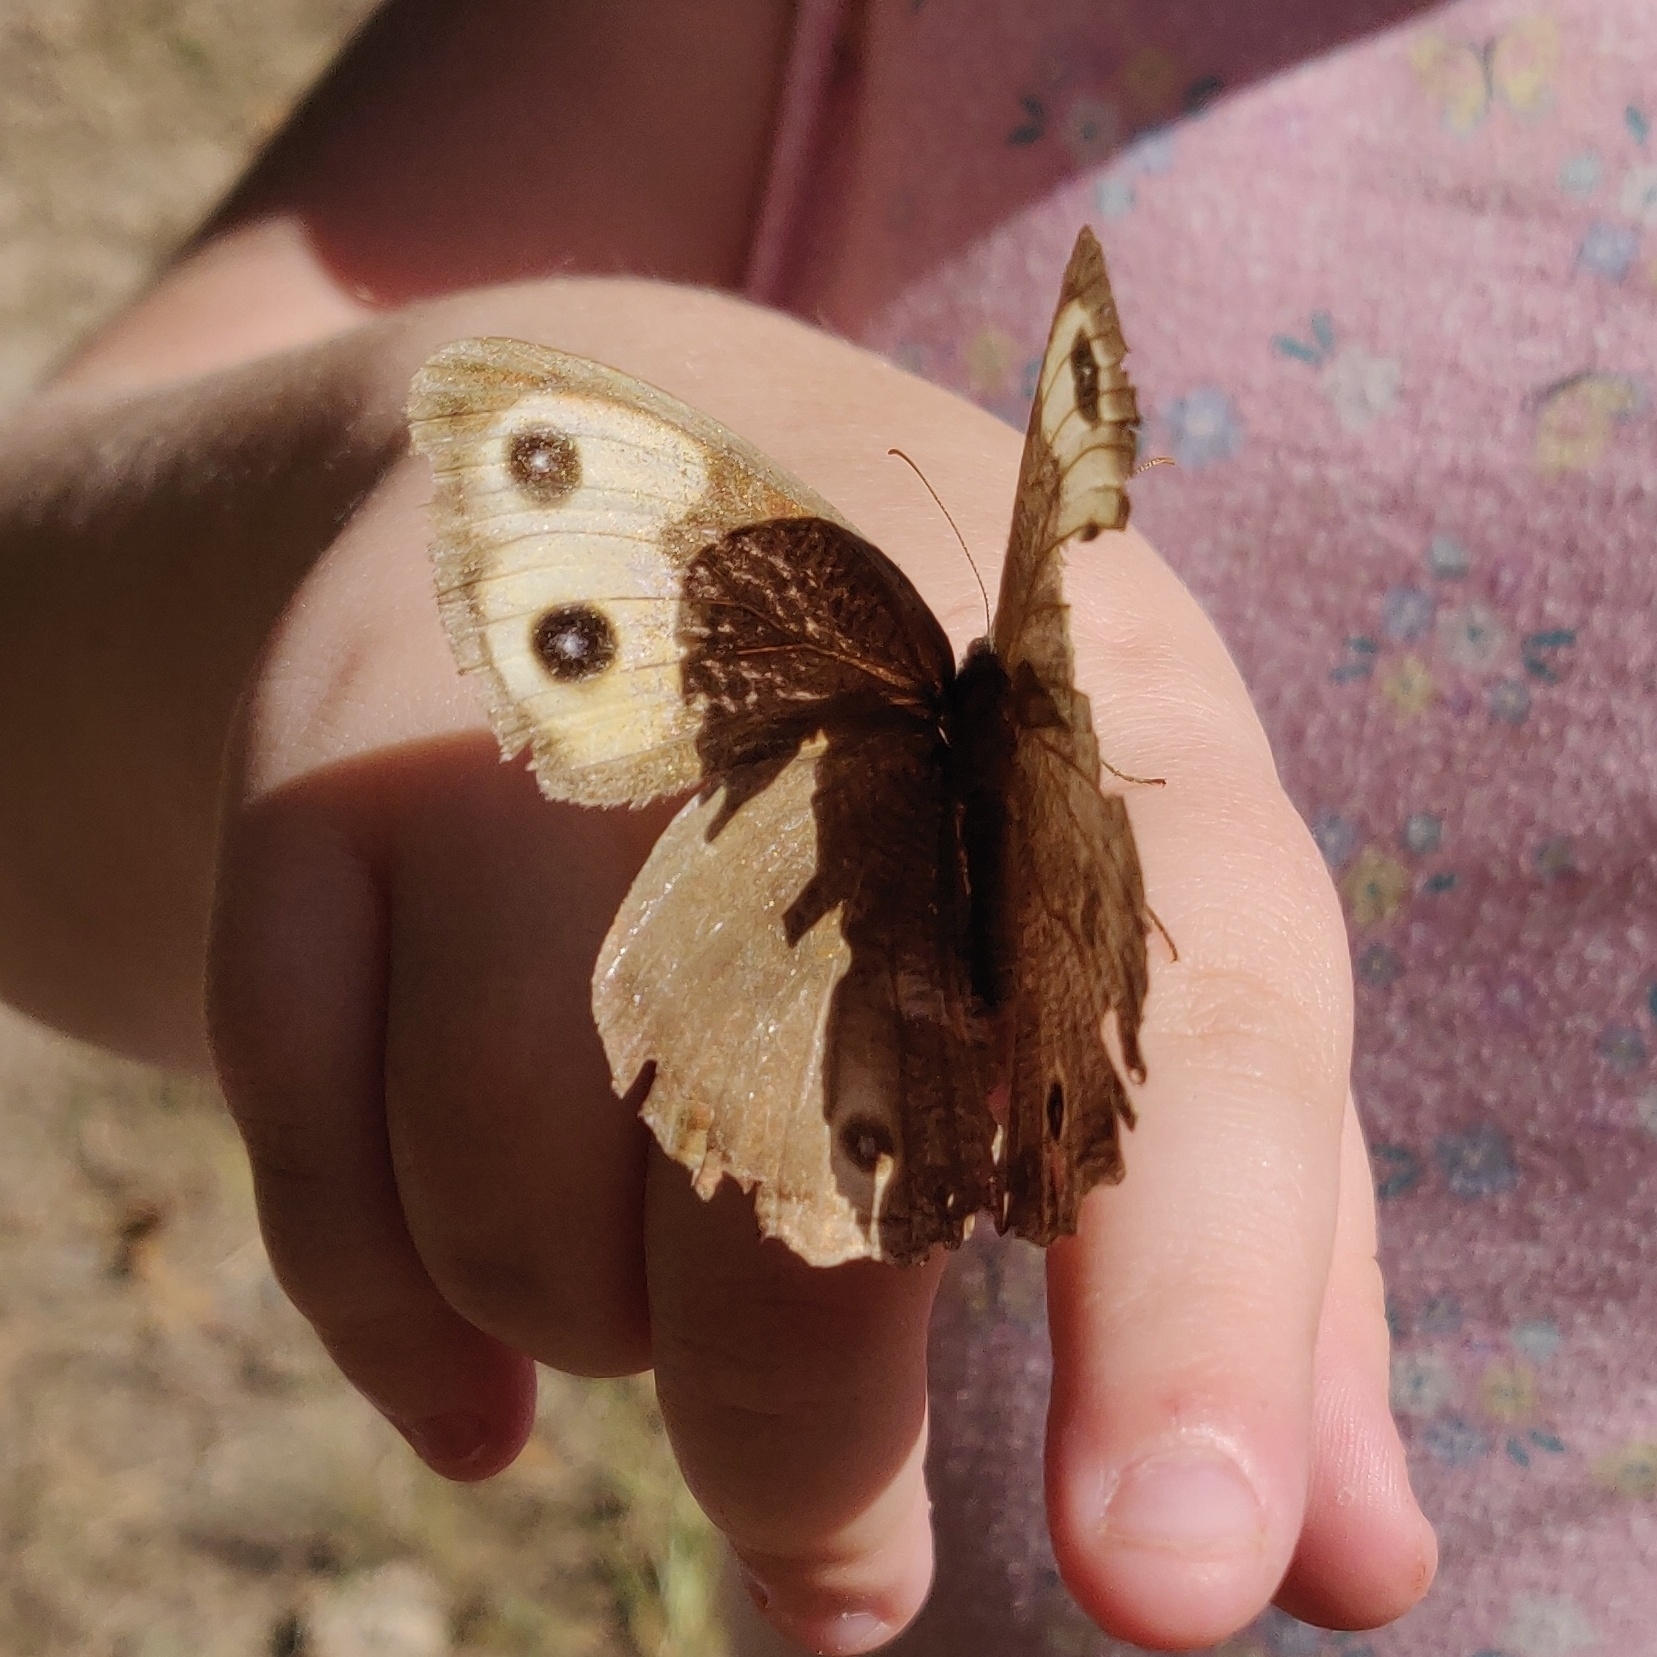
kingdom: Animalia
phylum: Arthropoda
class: Insecta
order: Lepidoptera
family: Nymphalidae
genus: Cercyonis
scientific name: Cercyonis pegala
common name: Common wood-nymph
